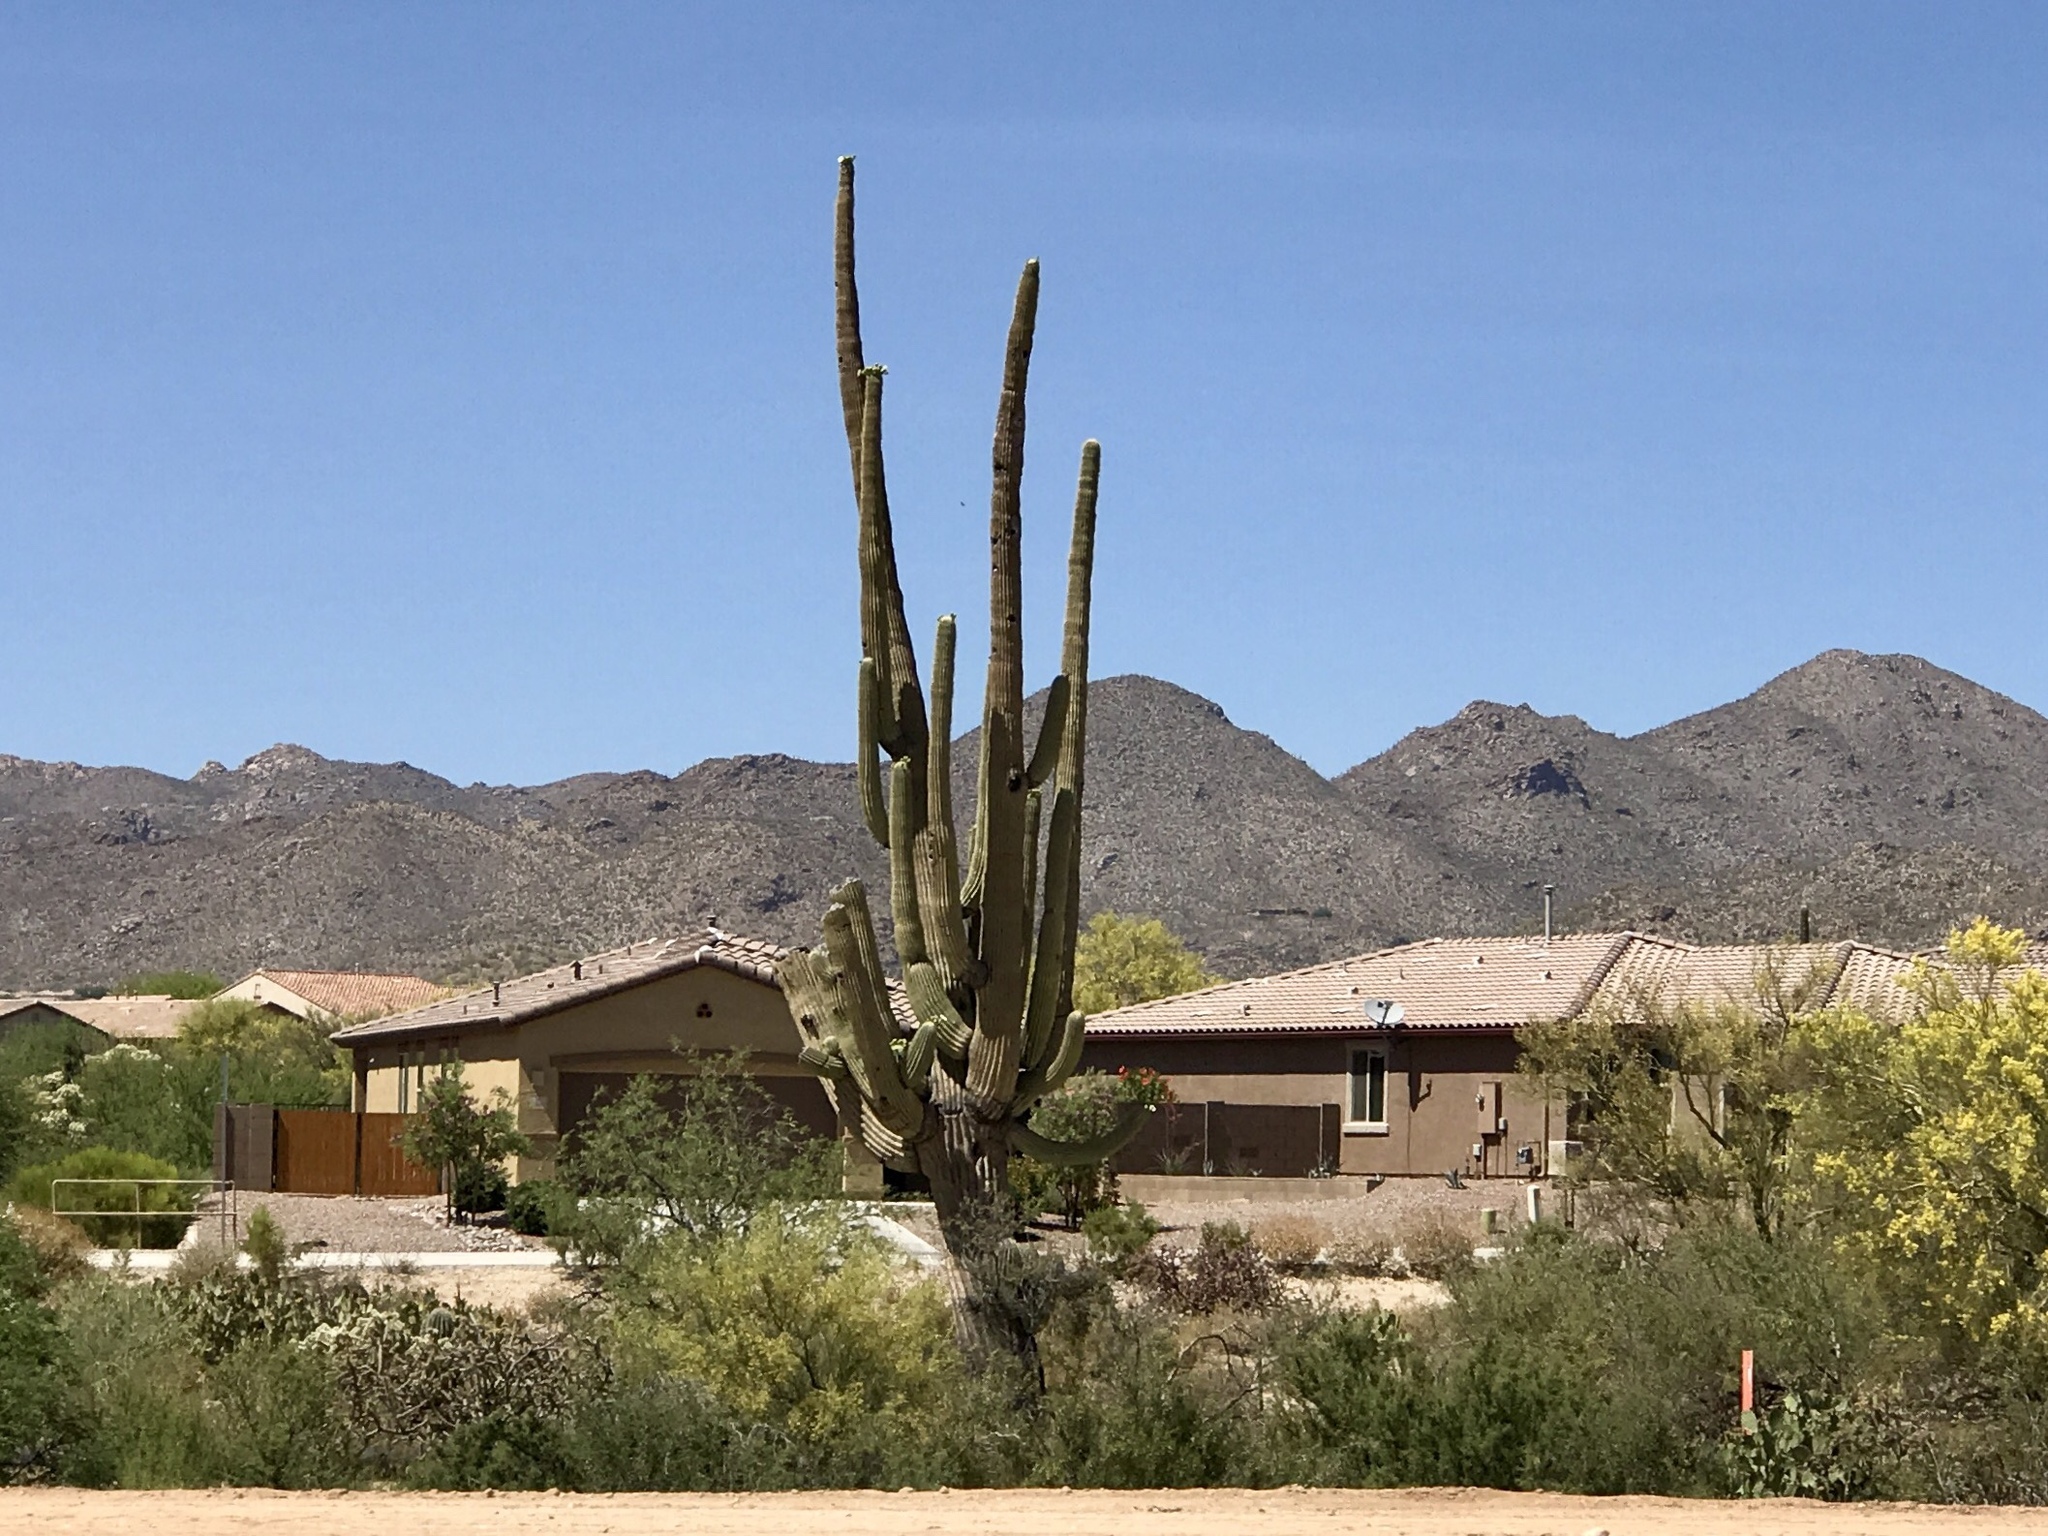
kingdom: Plantae
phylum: Tracheophyta
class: Magnoliopsida
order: Caryophyllales
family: Cactaceae
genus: Carnegiea
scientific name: Carnegiea gigantea
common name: Saguaro
